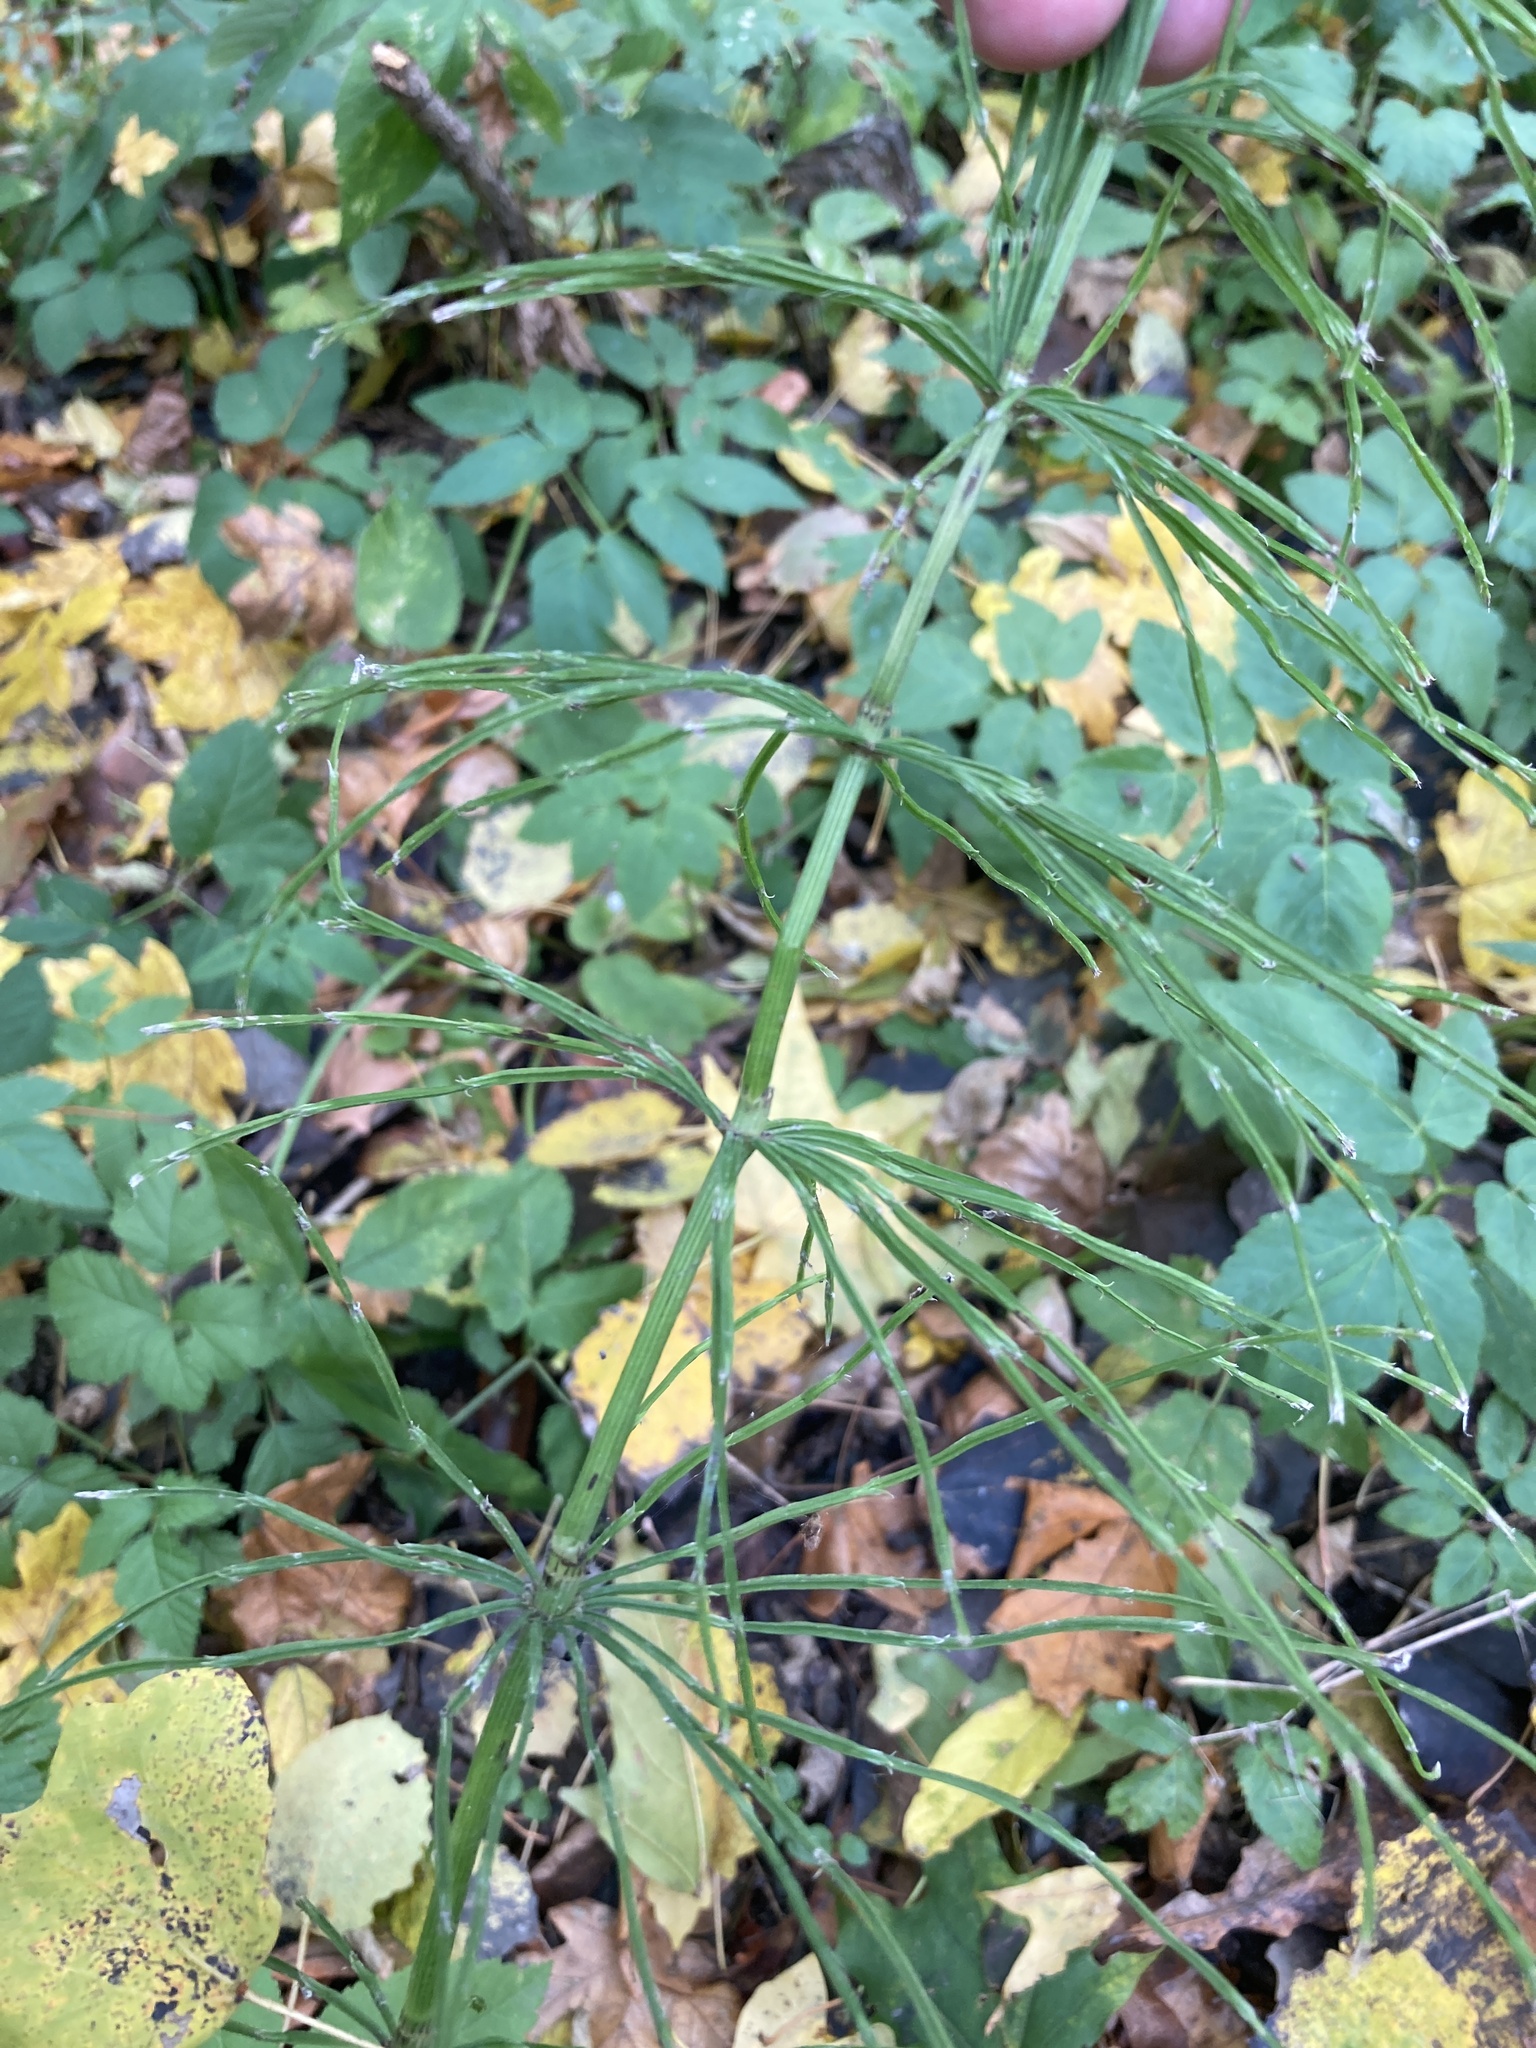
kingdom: Plantae
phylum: Tracheophyta
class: Polypodiopsida
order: Equisetales
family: Equisetaceae
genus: Equisetum
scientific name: Equisetum arvense
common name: Field horsetail
